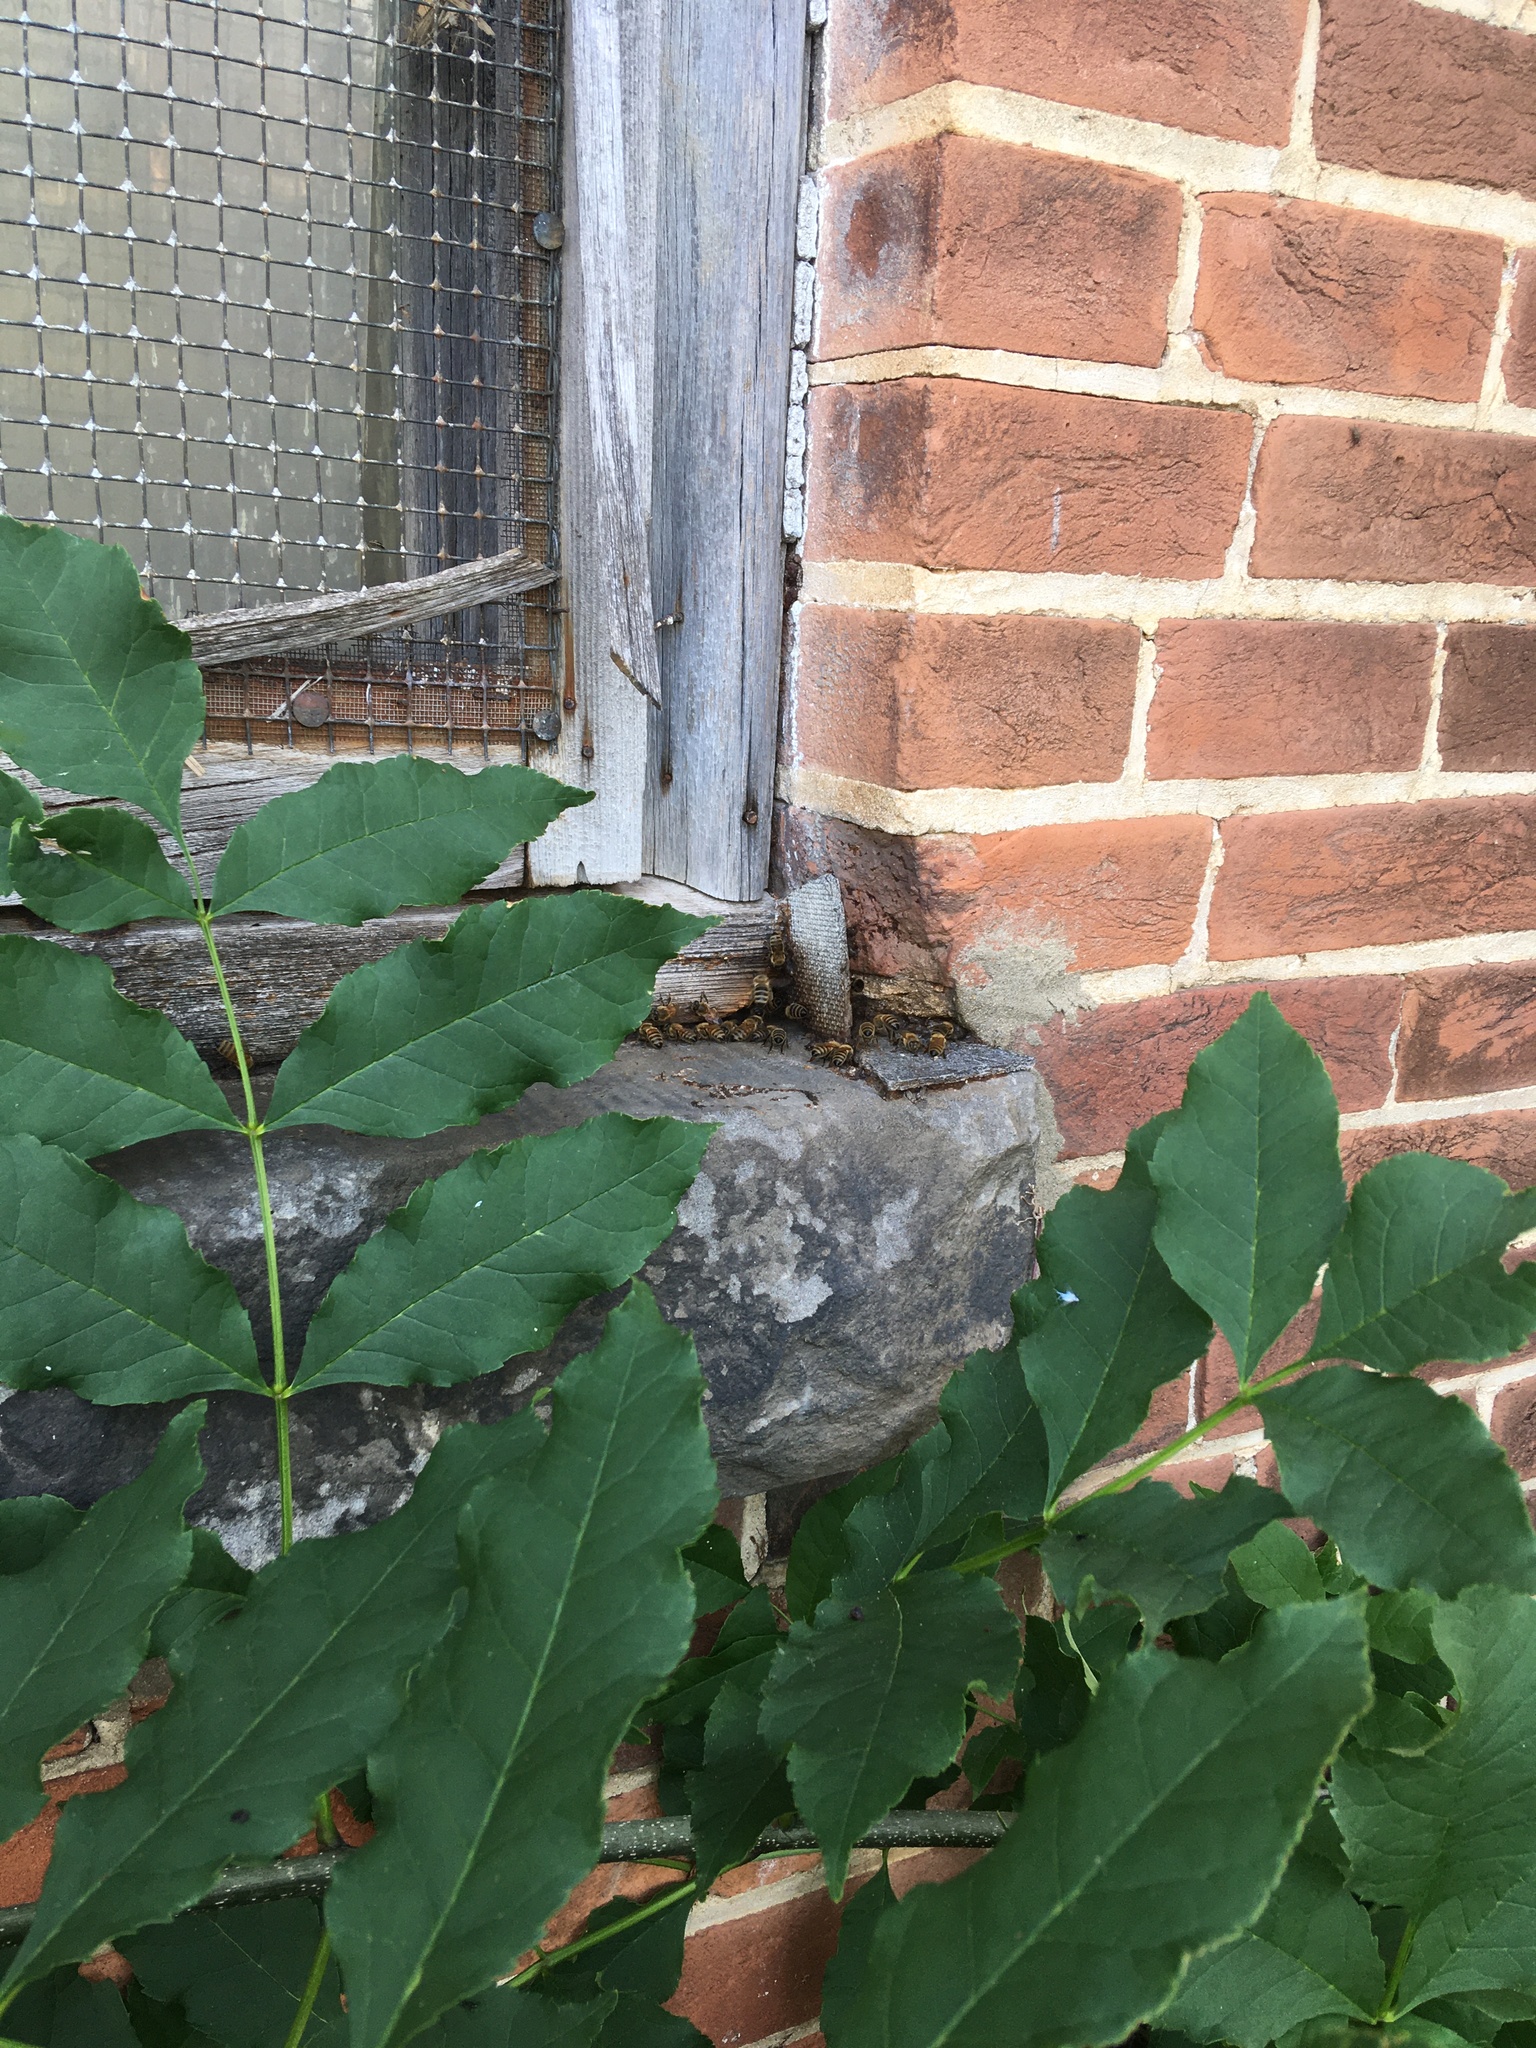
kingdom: Animalia
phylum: Arthropoda
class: Insecta
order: Hymenoptera
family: Apidae
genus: Apis
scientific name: Apis mellifera
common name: Honey bee
